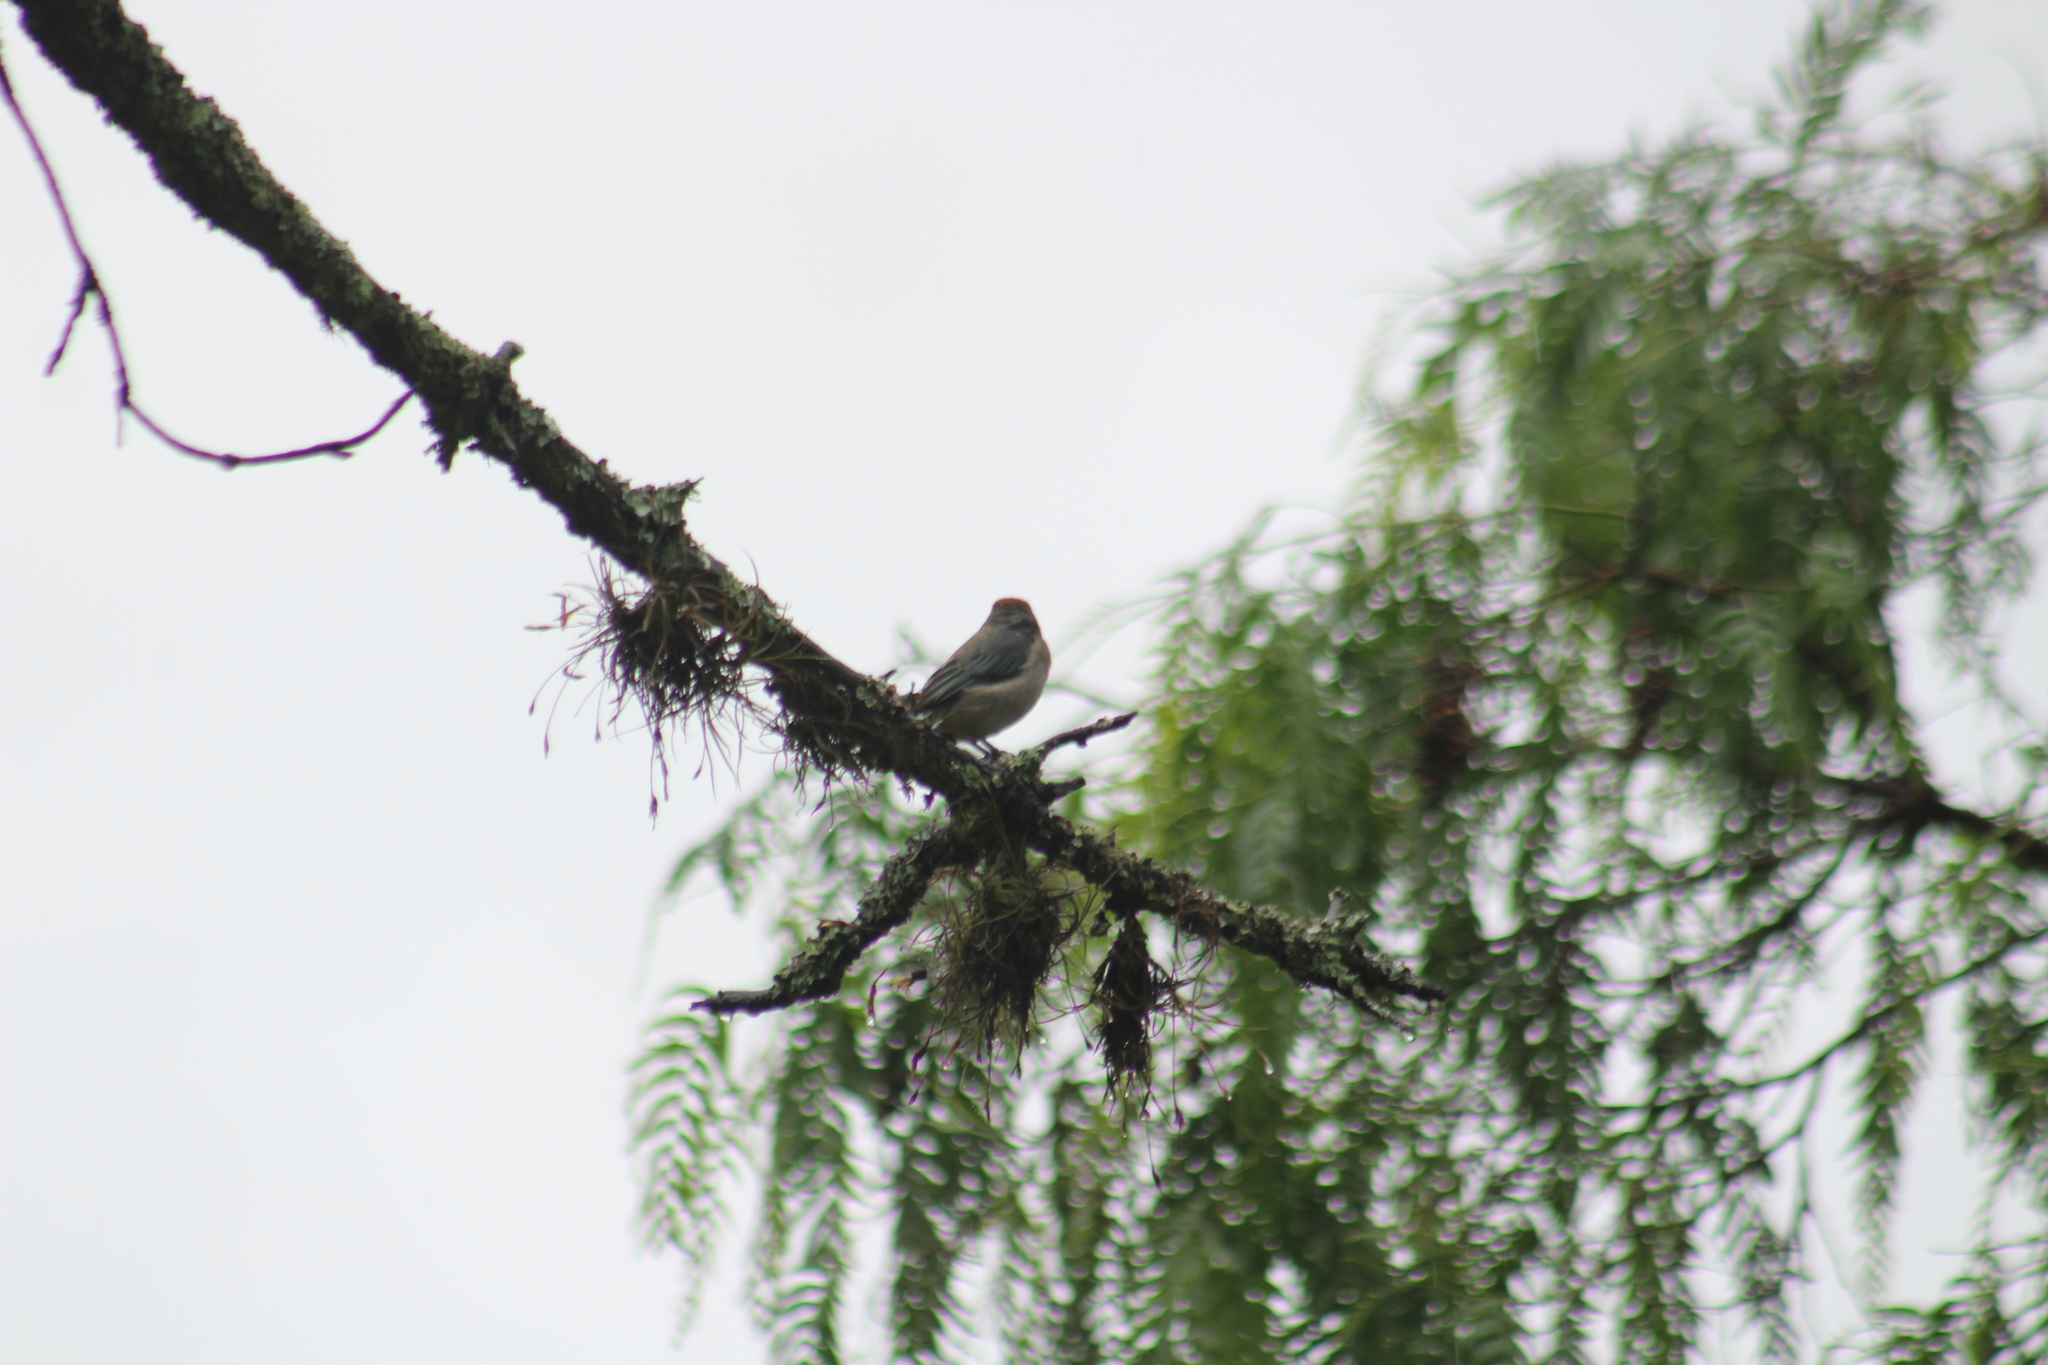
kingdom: Animalia
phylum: Chordata
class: Aves
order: Passeriformes
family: Thraupidae
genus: Stilpnia
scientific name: Stilpnia vitriolina
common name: Scrub tanager
